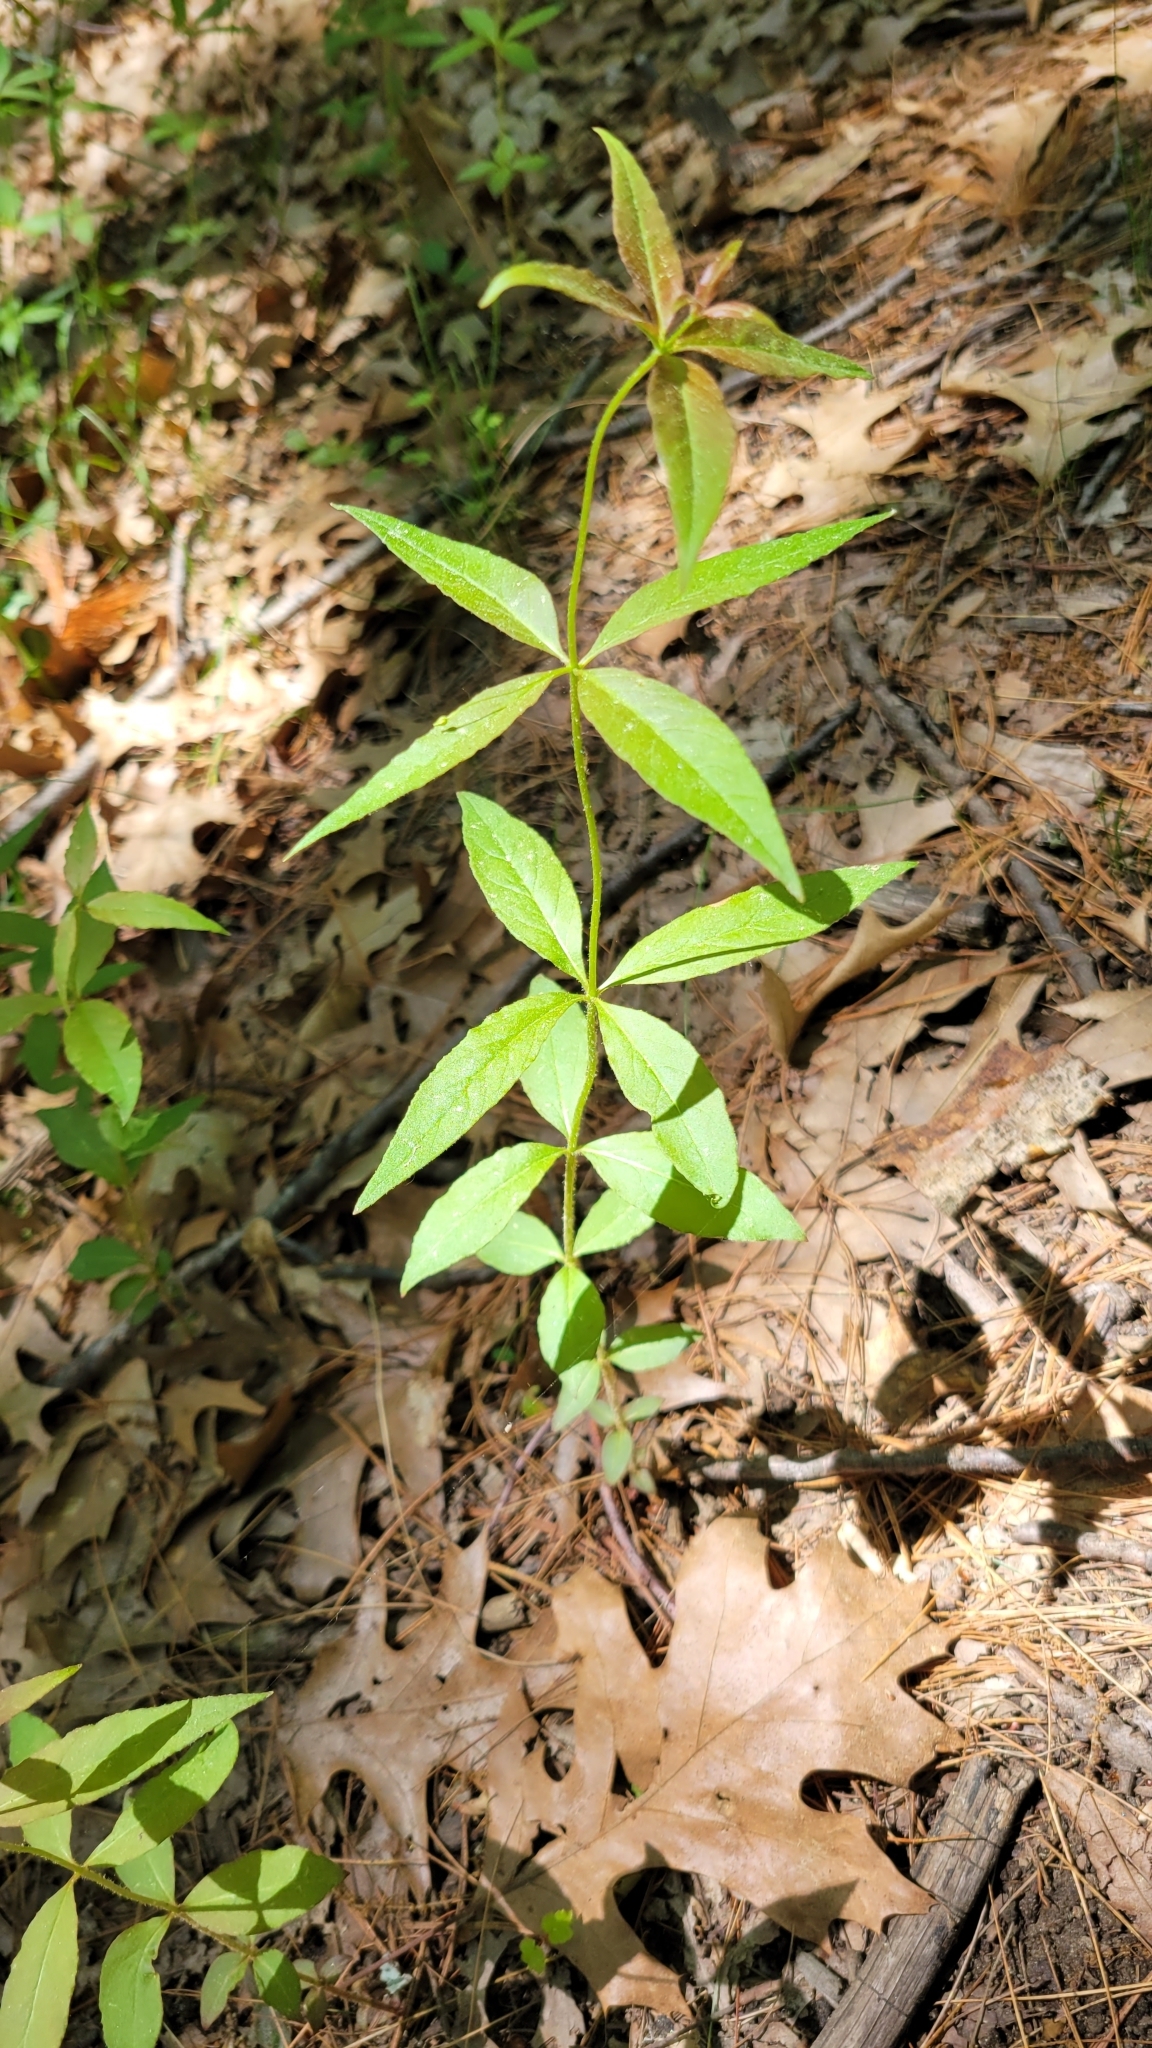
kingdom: Plantae
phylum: Tracheophyta
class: Magnoliopsida
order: Lamiales
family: Plantaginaceae
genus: Veronicastrum
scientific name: Veronicastrum virginicum
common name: Blackroot
